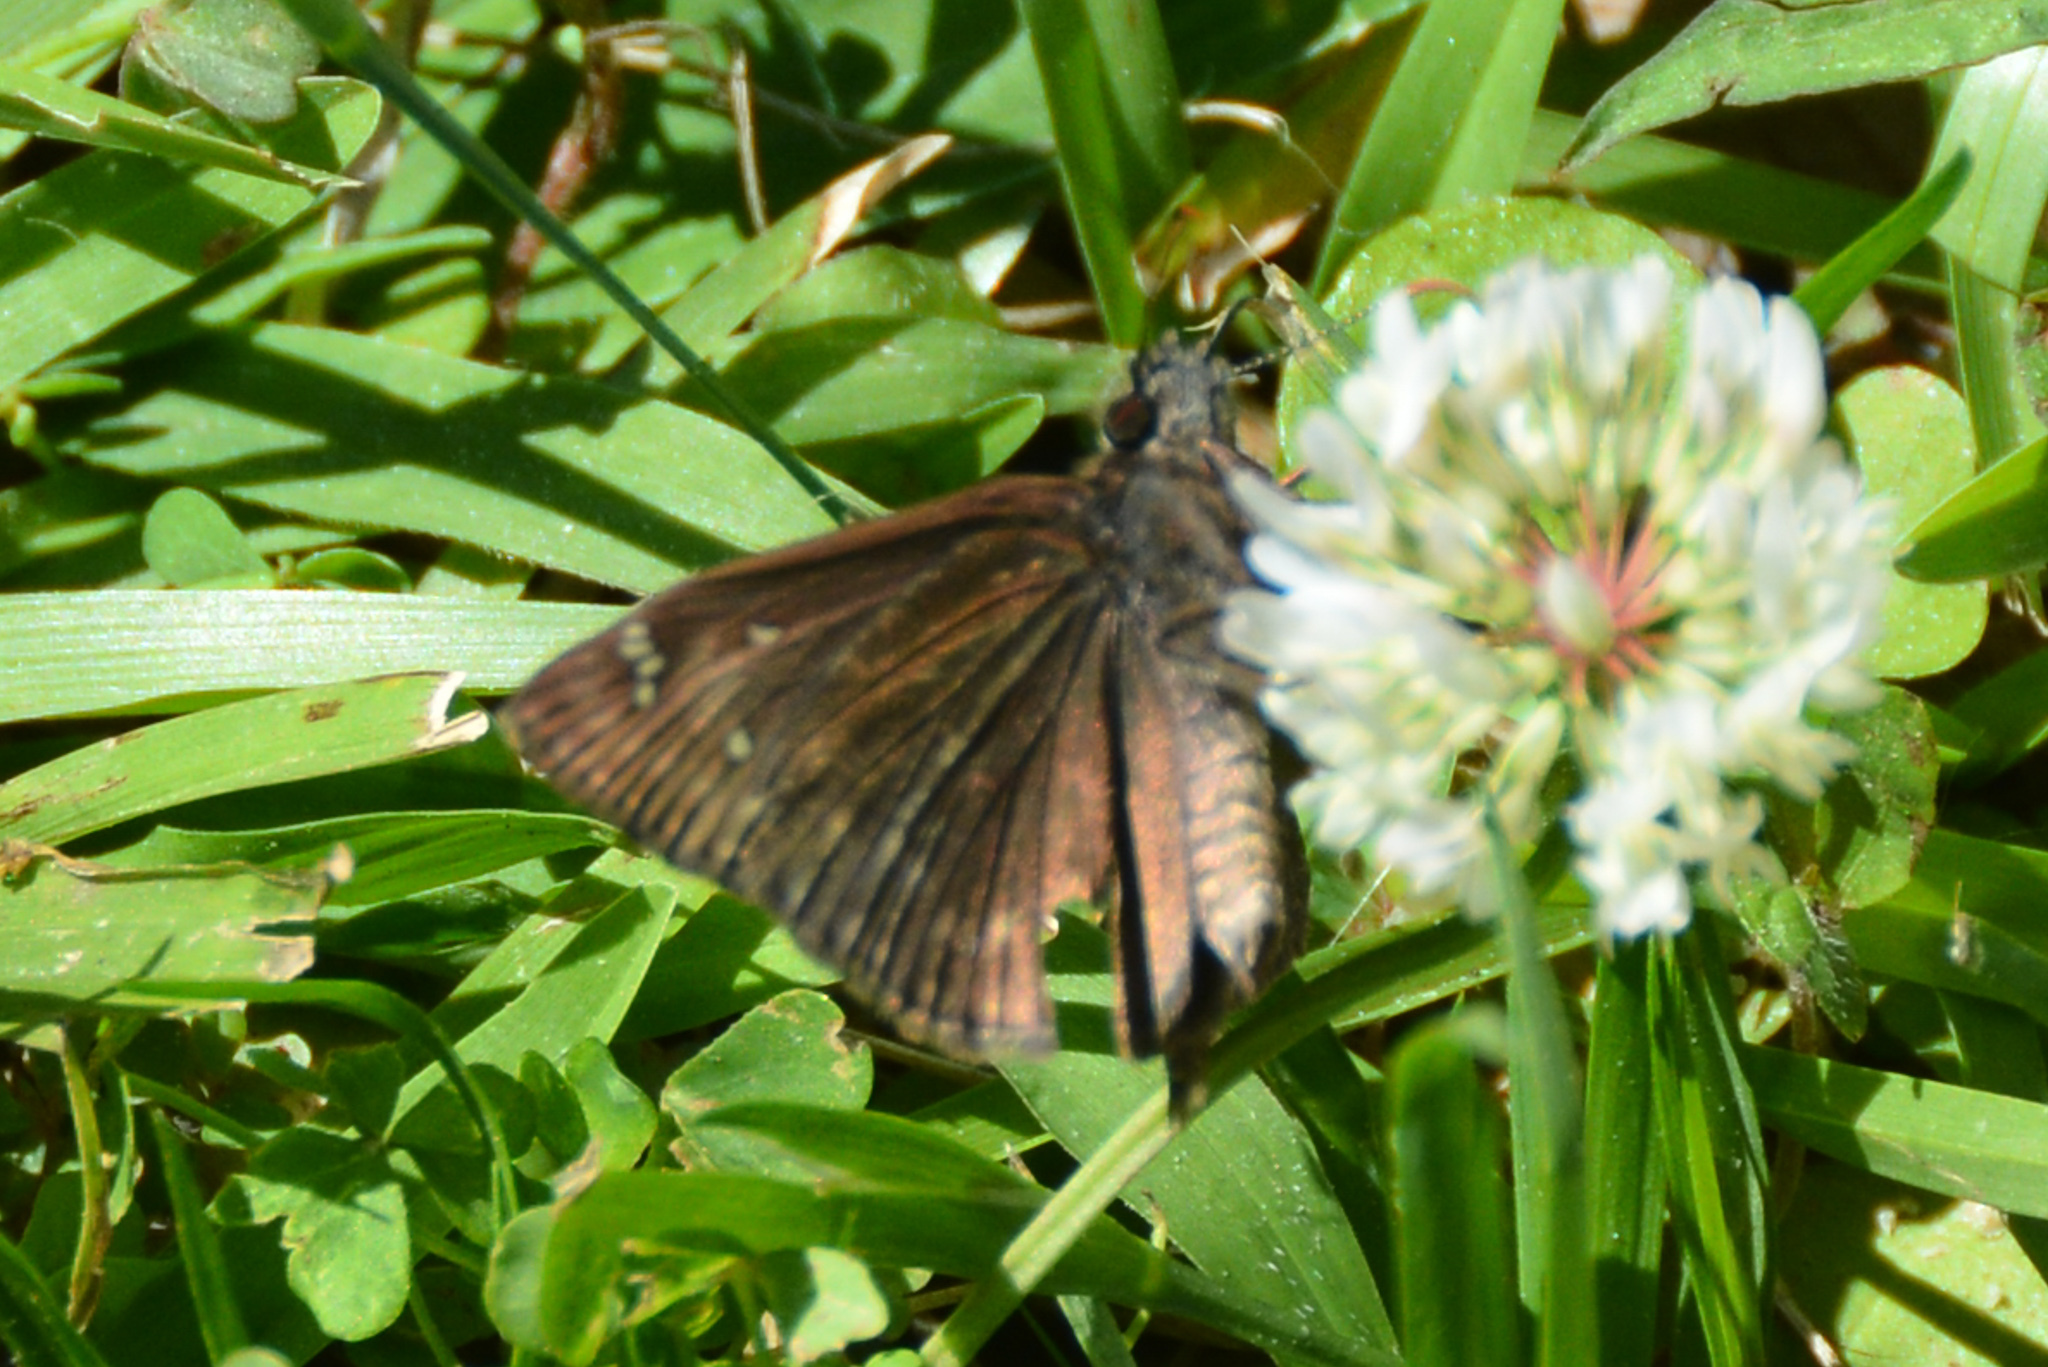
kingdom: Animalia
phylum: Arthropoda
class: Insecta
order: Lepidoptera
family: Hesperiidae
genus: Erynnis
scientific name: Erynnis horatius
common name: Horace's duskywing
